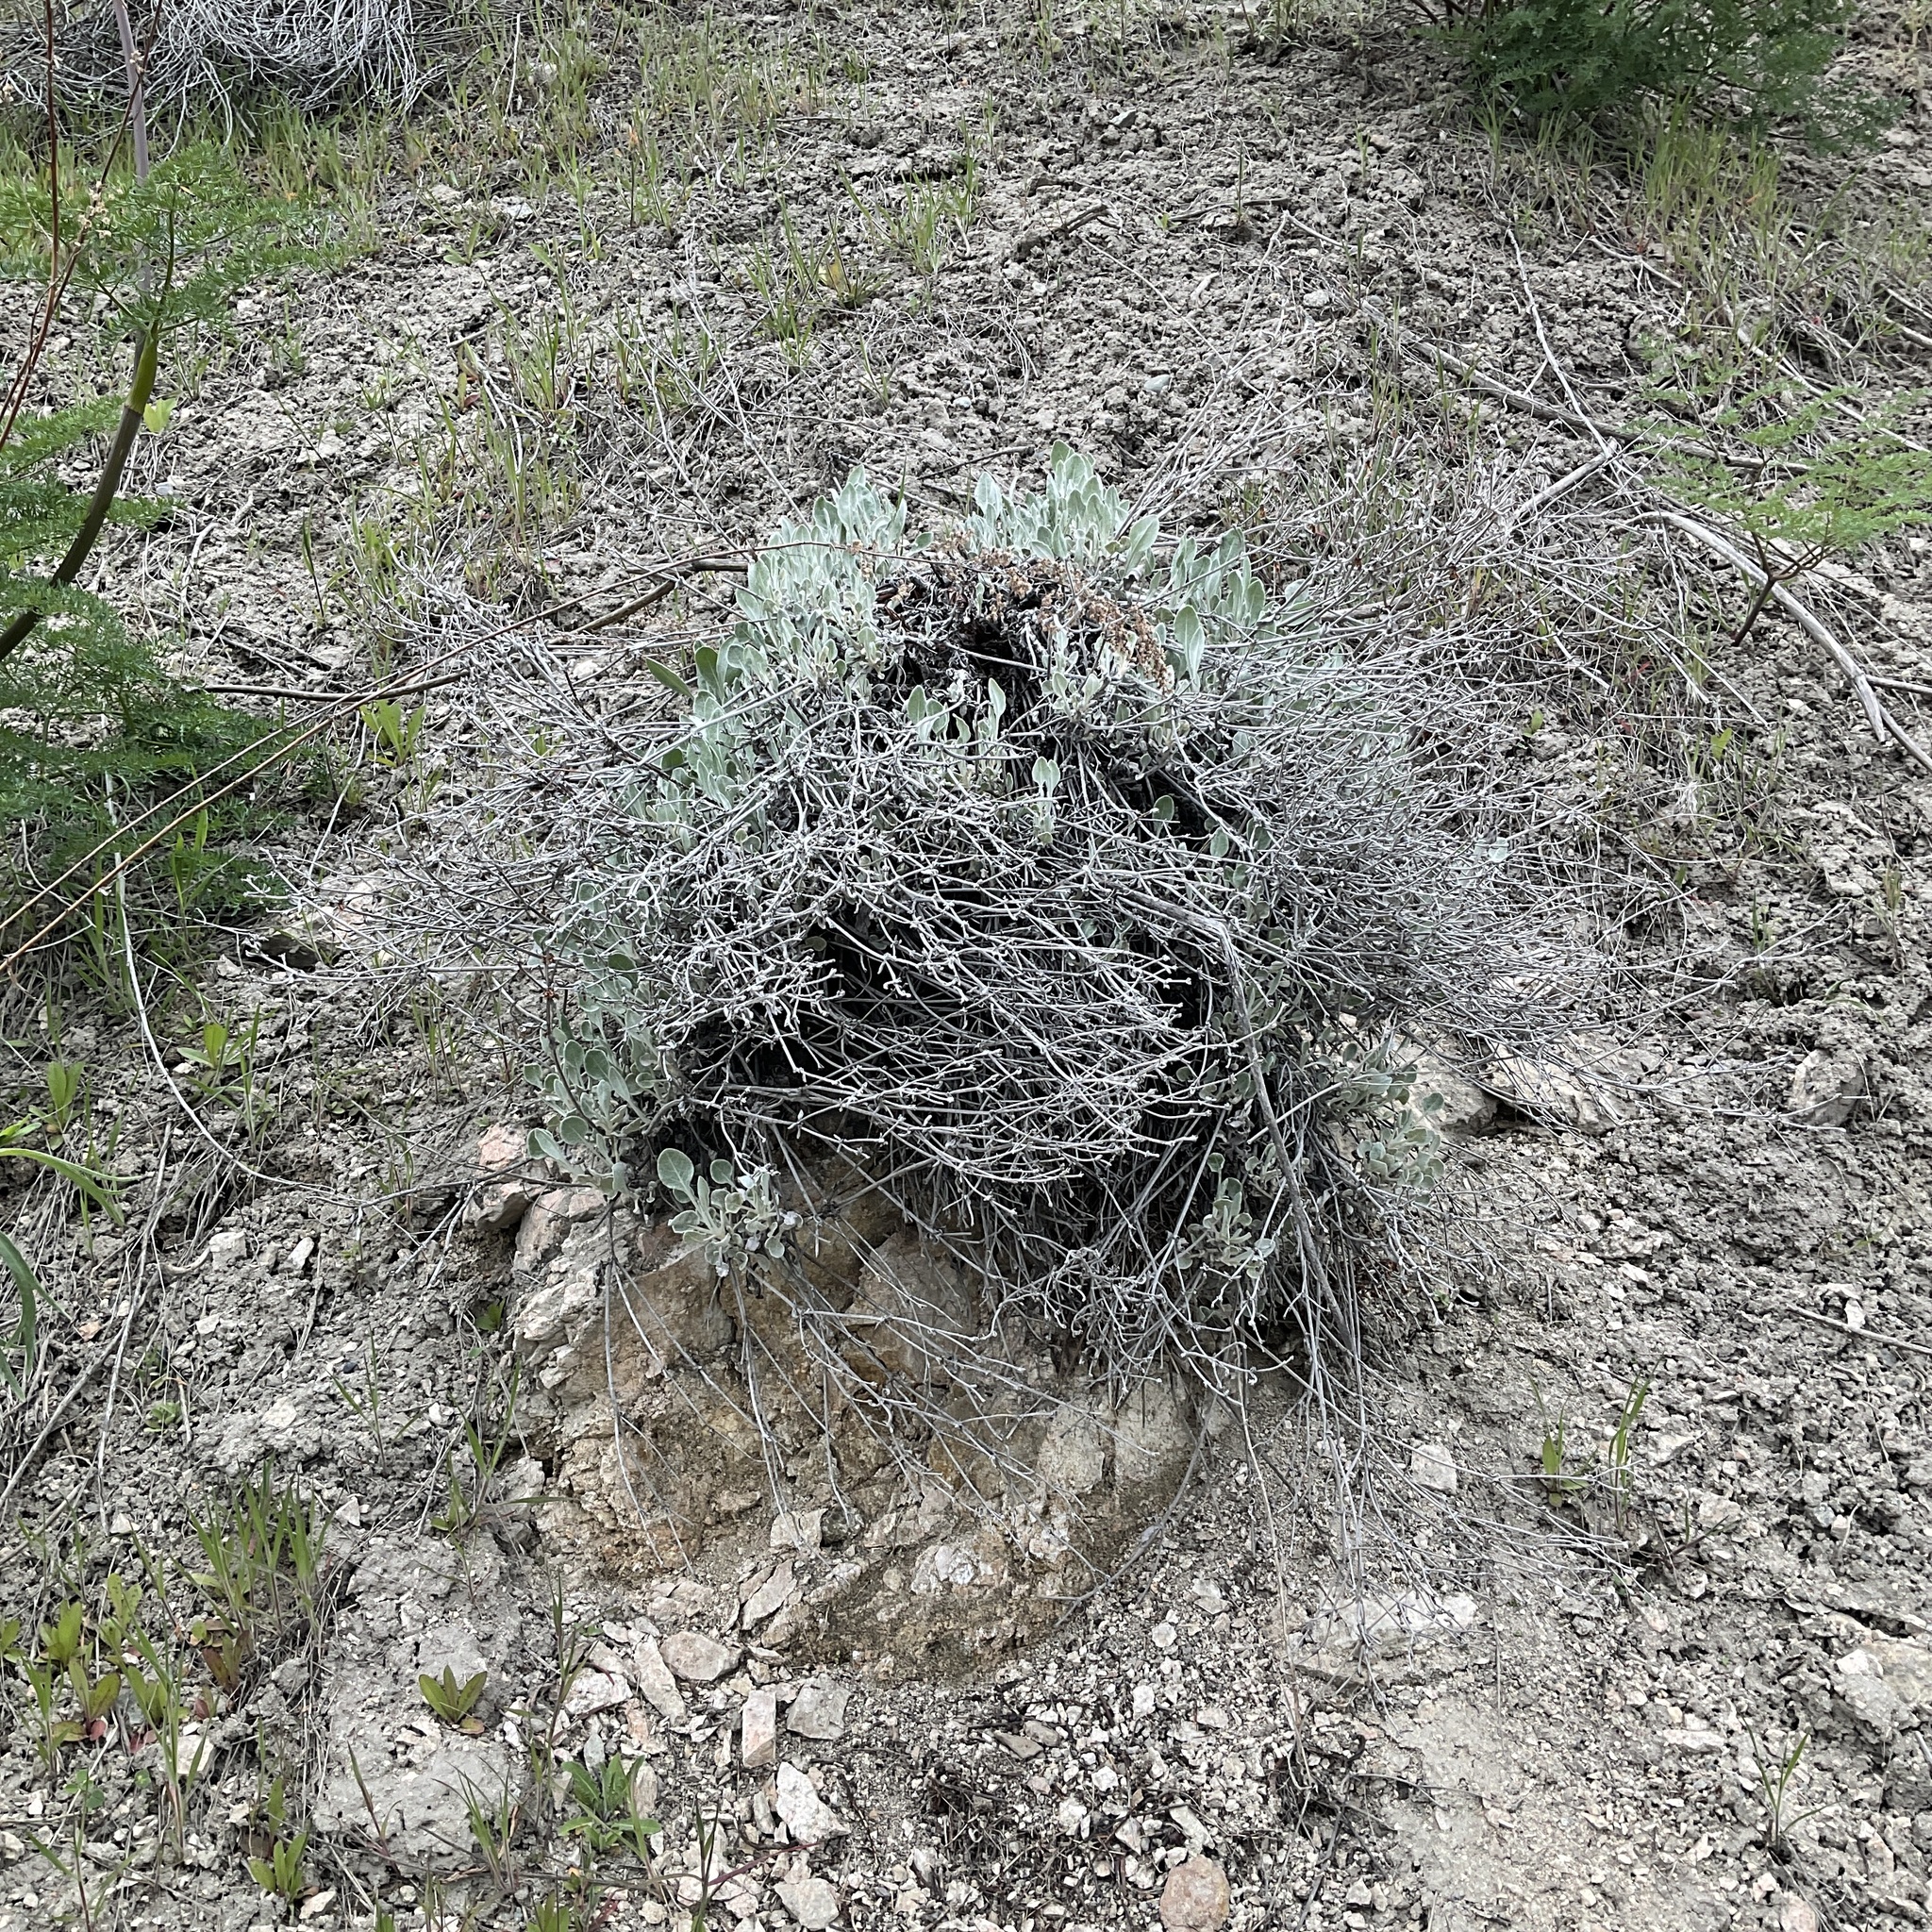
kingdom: Plantae
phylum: Tracheophyta
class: Magnoliopsida
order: Caryophyllales
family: Polygonaceae
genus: Eriogonum
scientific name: Eriogonum niveum
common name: Snow wild buckwheat
